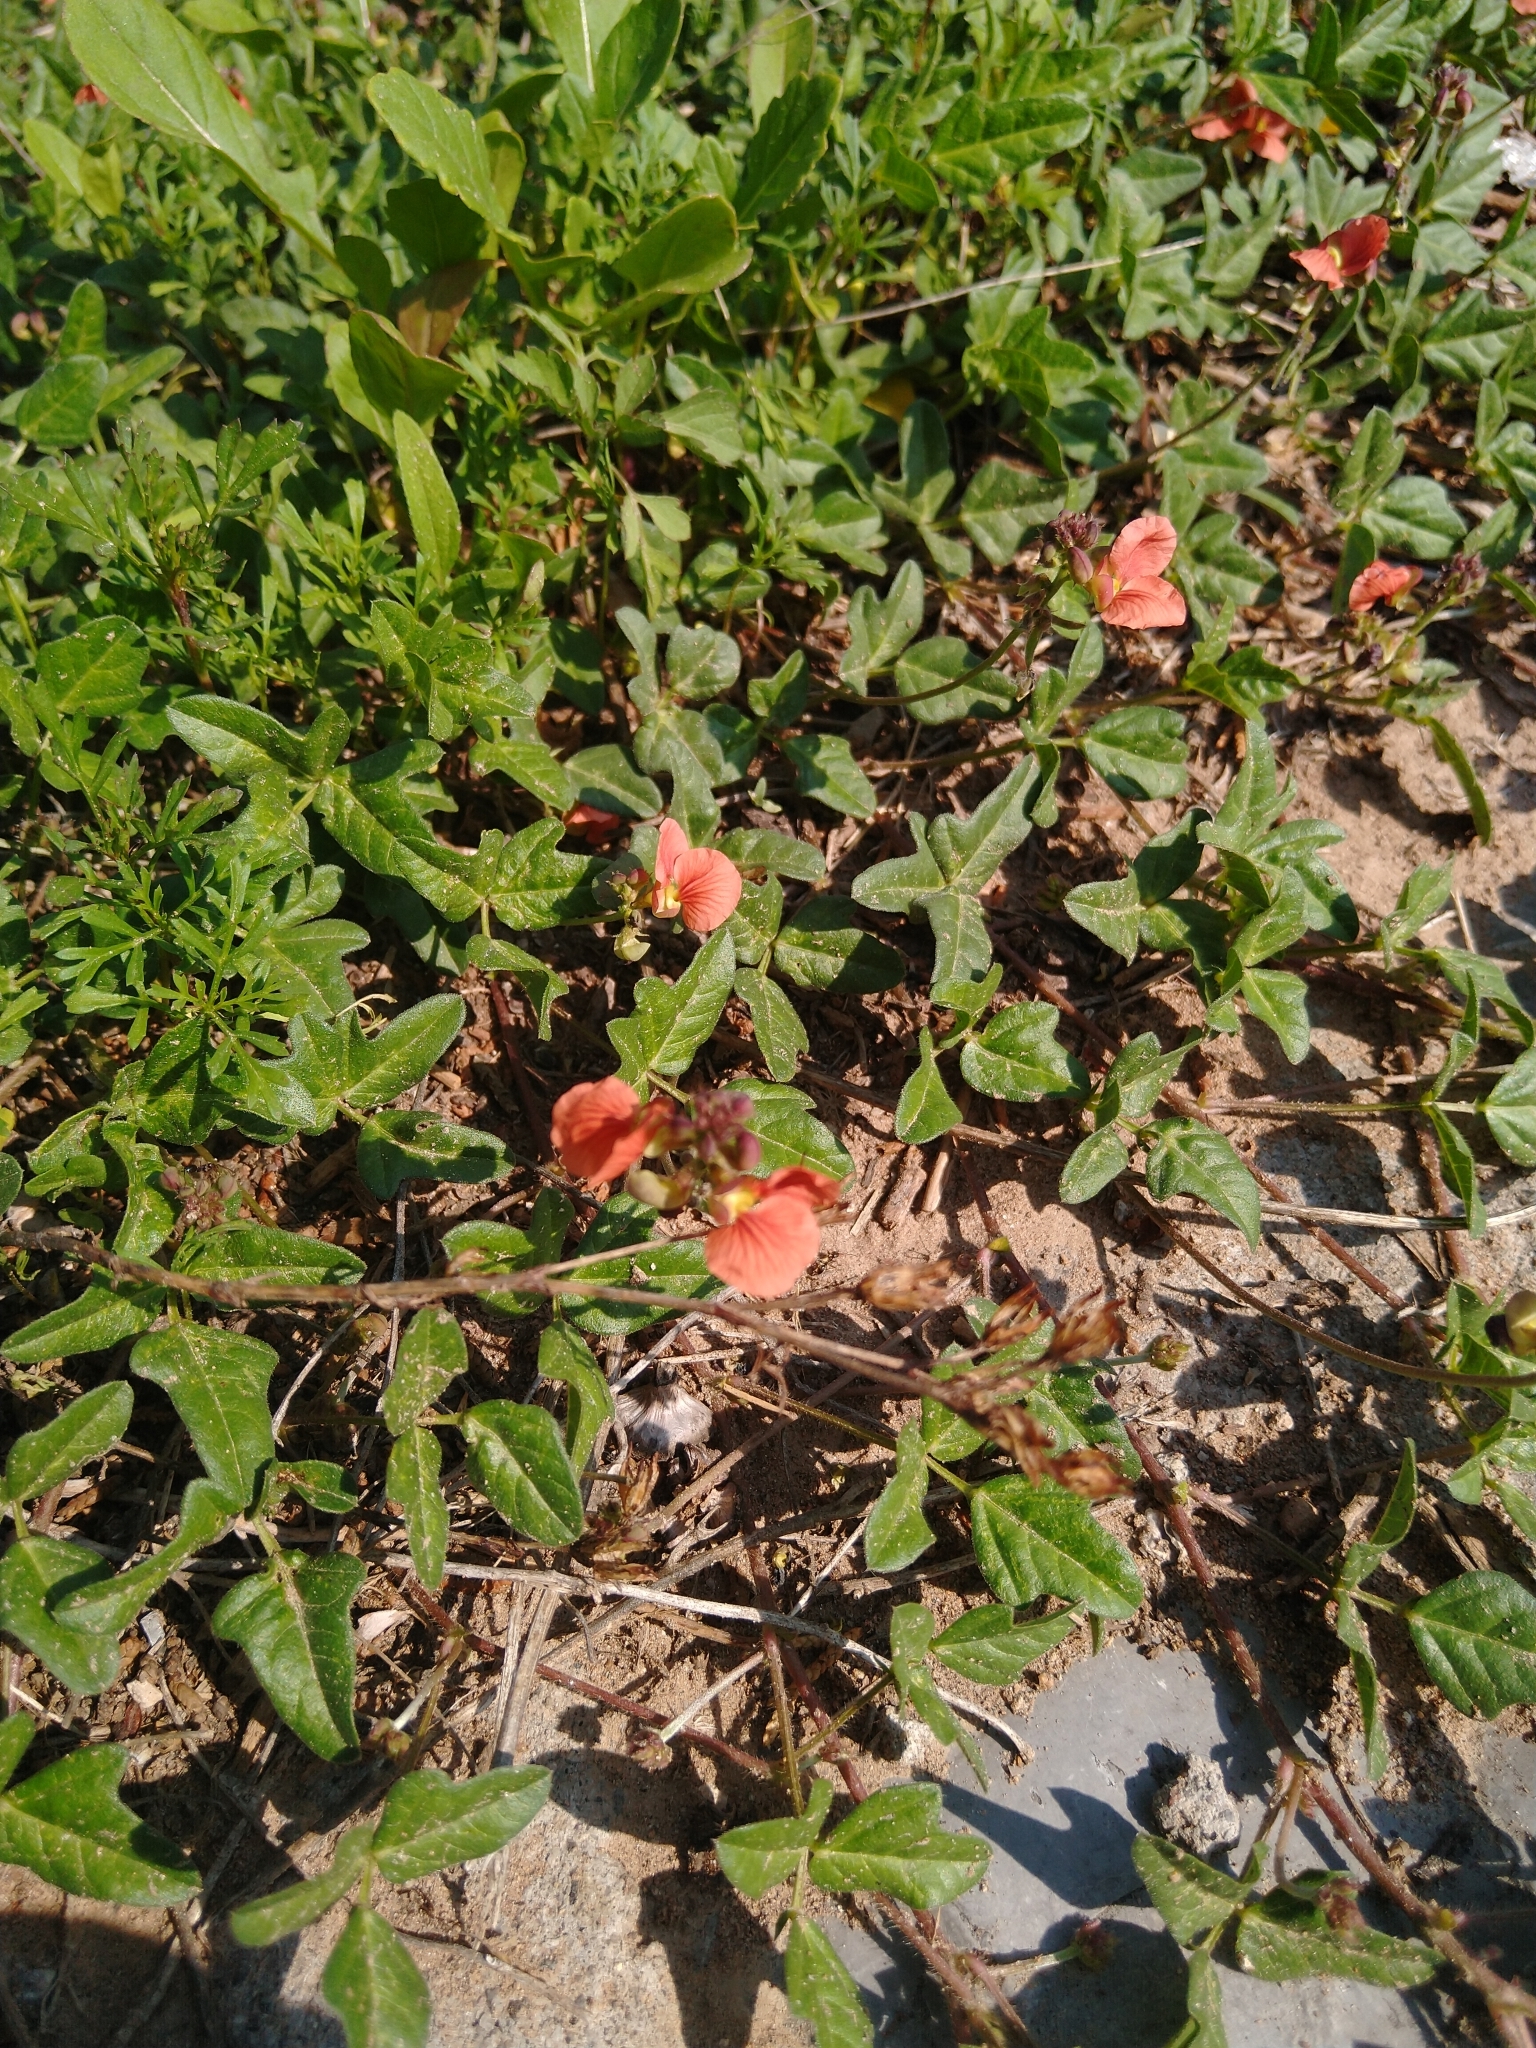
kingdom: Plantae
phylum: Tracheophyta
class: Magnoliopsida
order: Fabales
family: Fabaceae
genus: Macroptilium
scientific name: Macroptilium gibbosifolium
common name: Variableleaf bushbean
